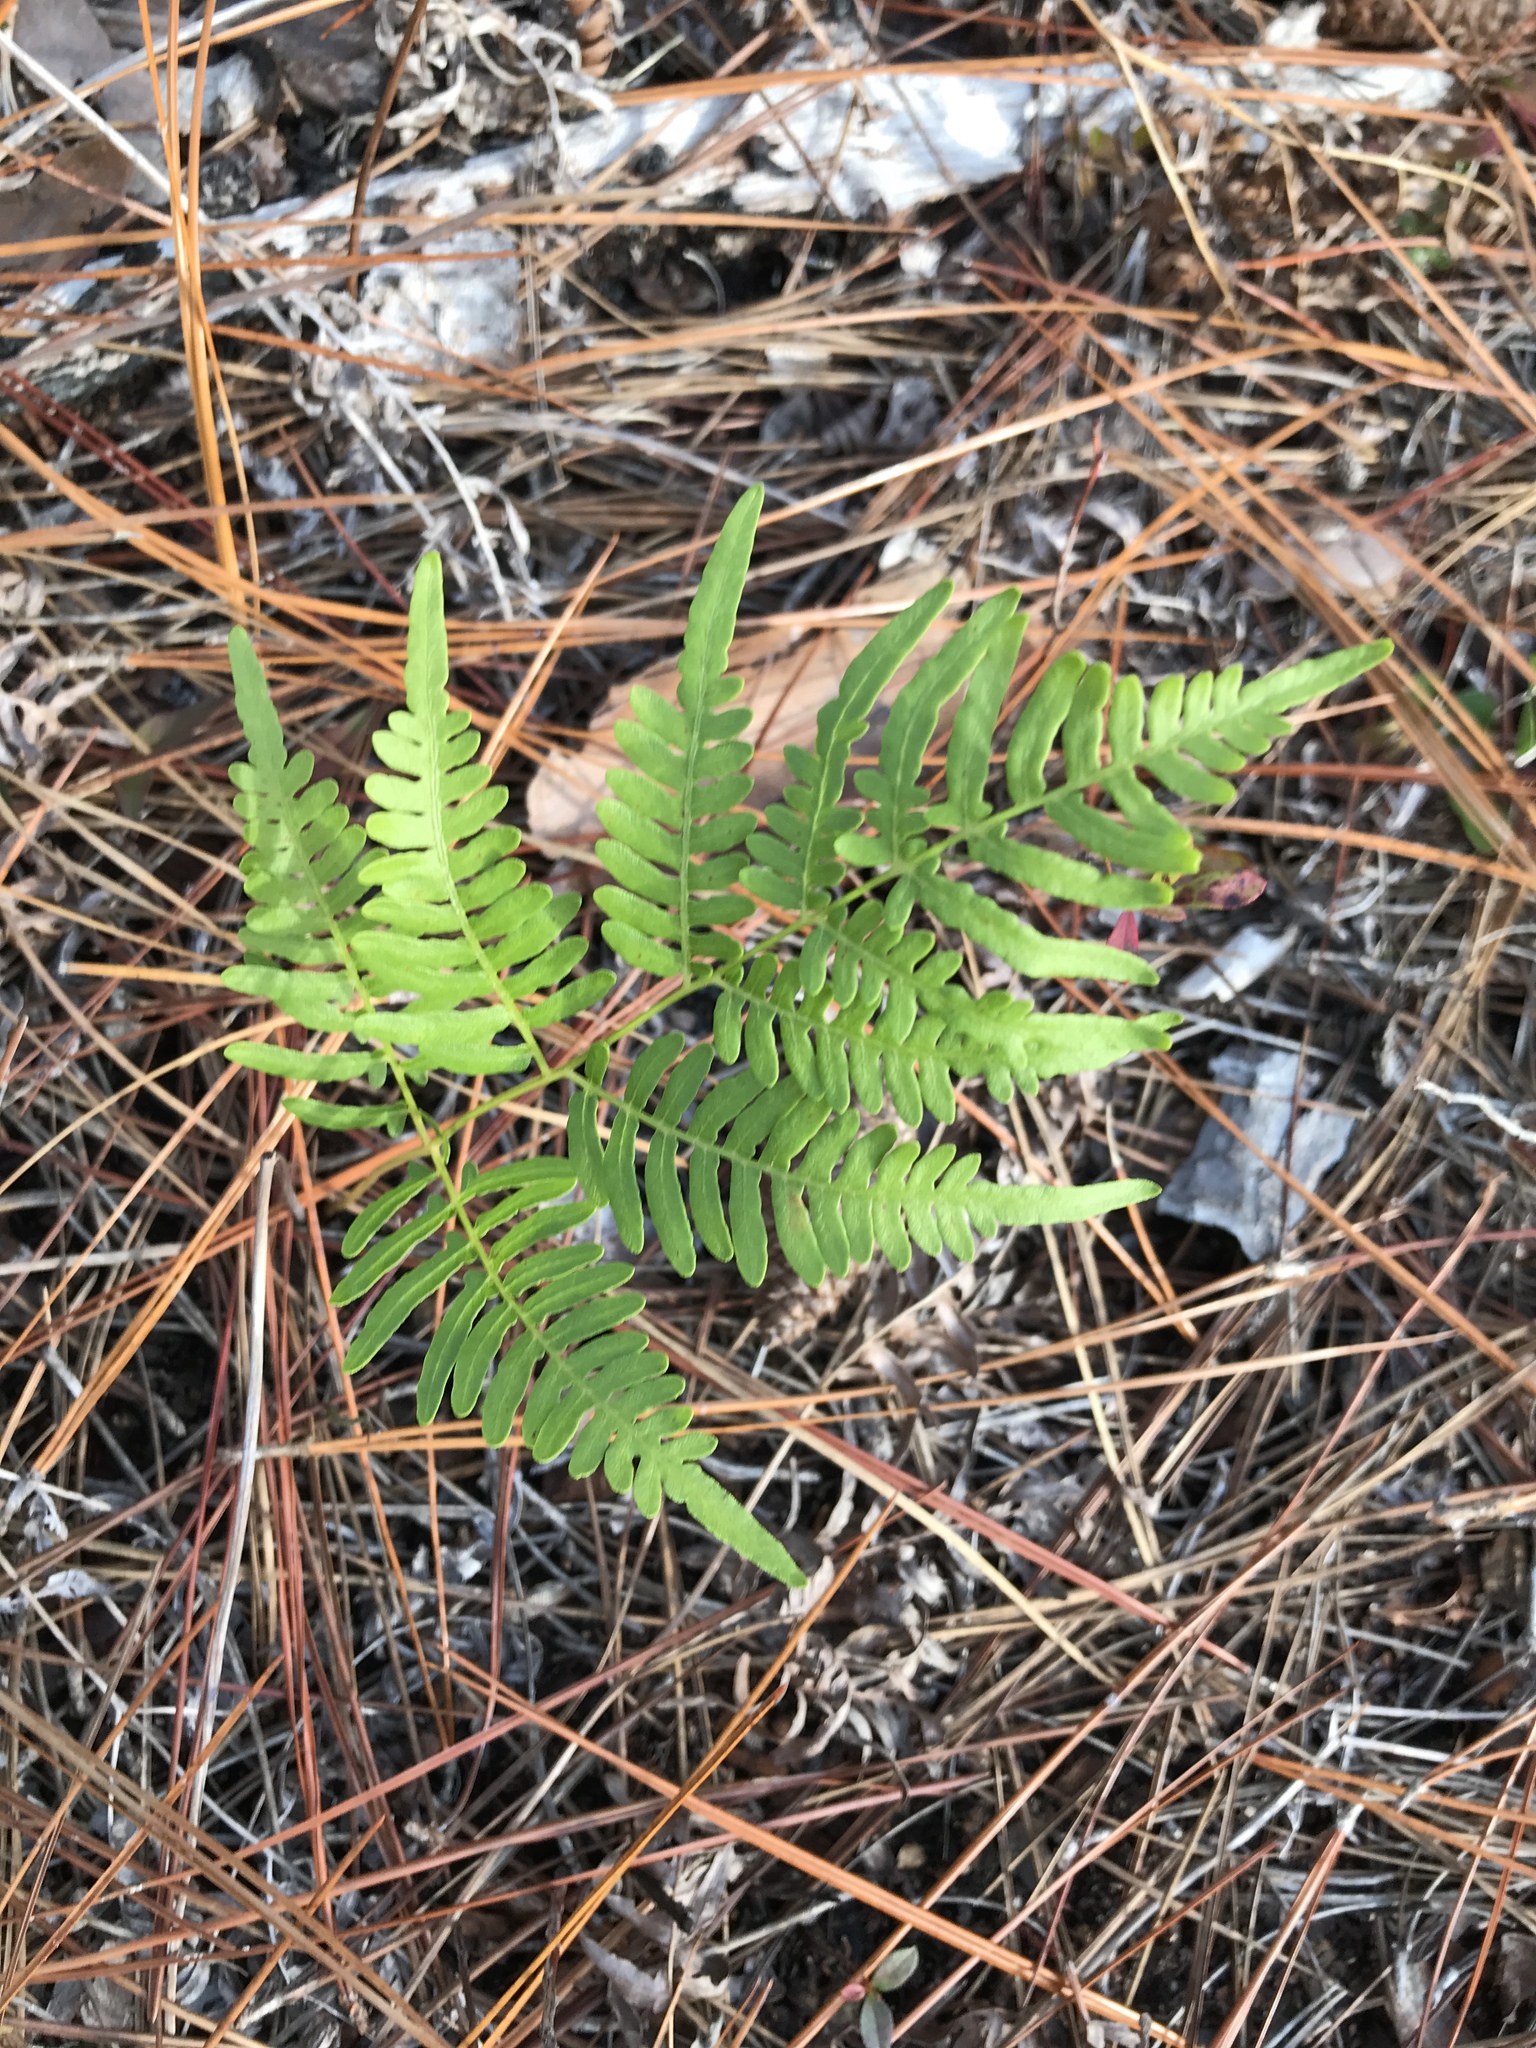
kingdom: Plantae
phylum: Tracheophyta
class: Polypodiopsida
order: Polypodiales
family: Dennstaedtiaceae
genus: Pteridium
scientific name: Pteridium aquilinum
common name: Bracken
